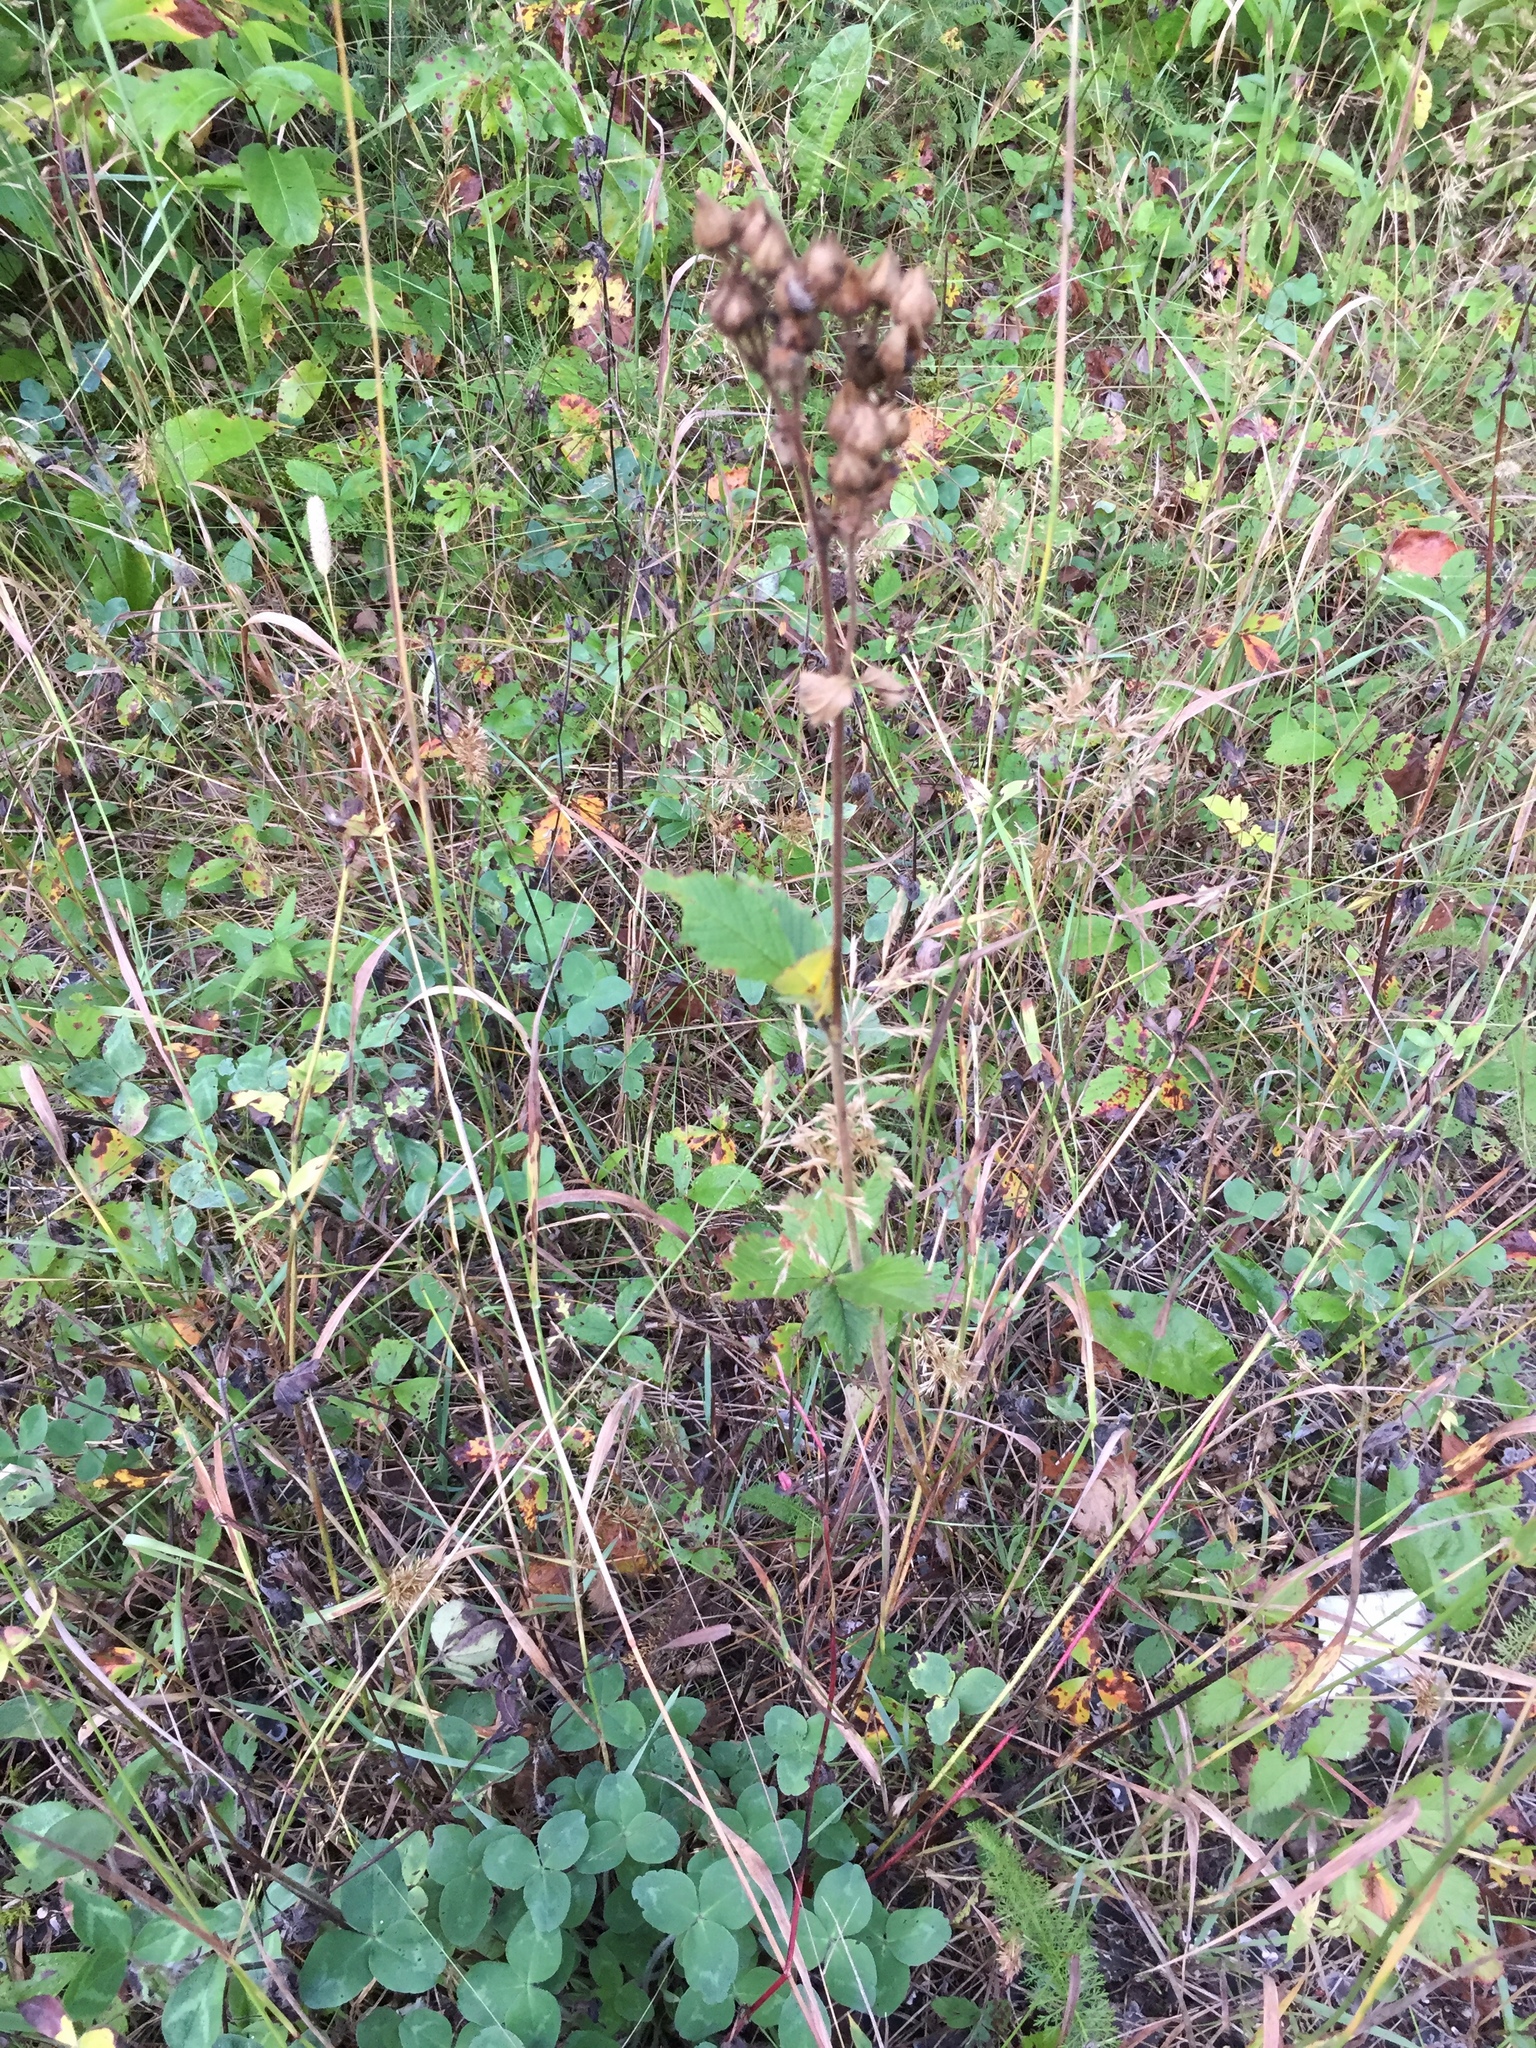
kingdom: Plantae
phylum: Tracheophyta
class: Magnoliopsida
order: Rosales
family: Rosaceae
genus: Drymocallis
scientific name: Drymocallis arguta
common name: Tall cinquefoil
